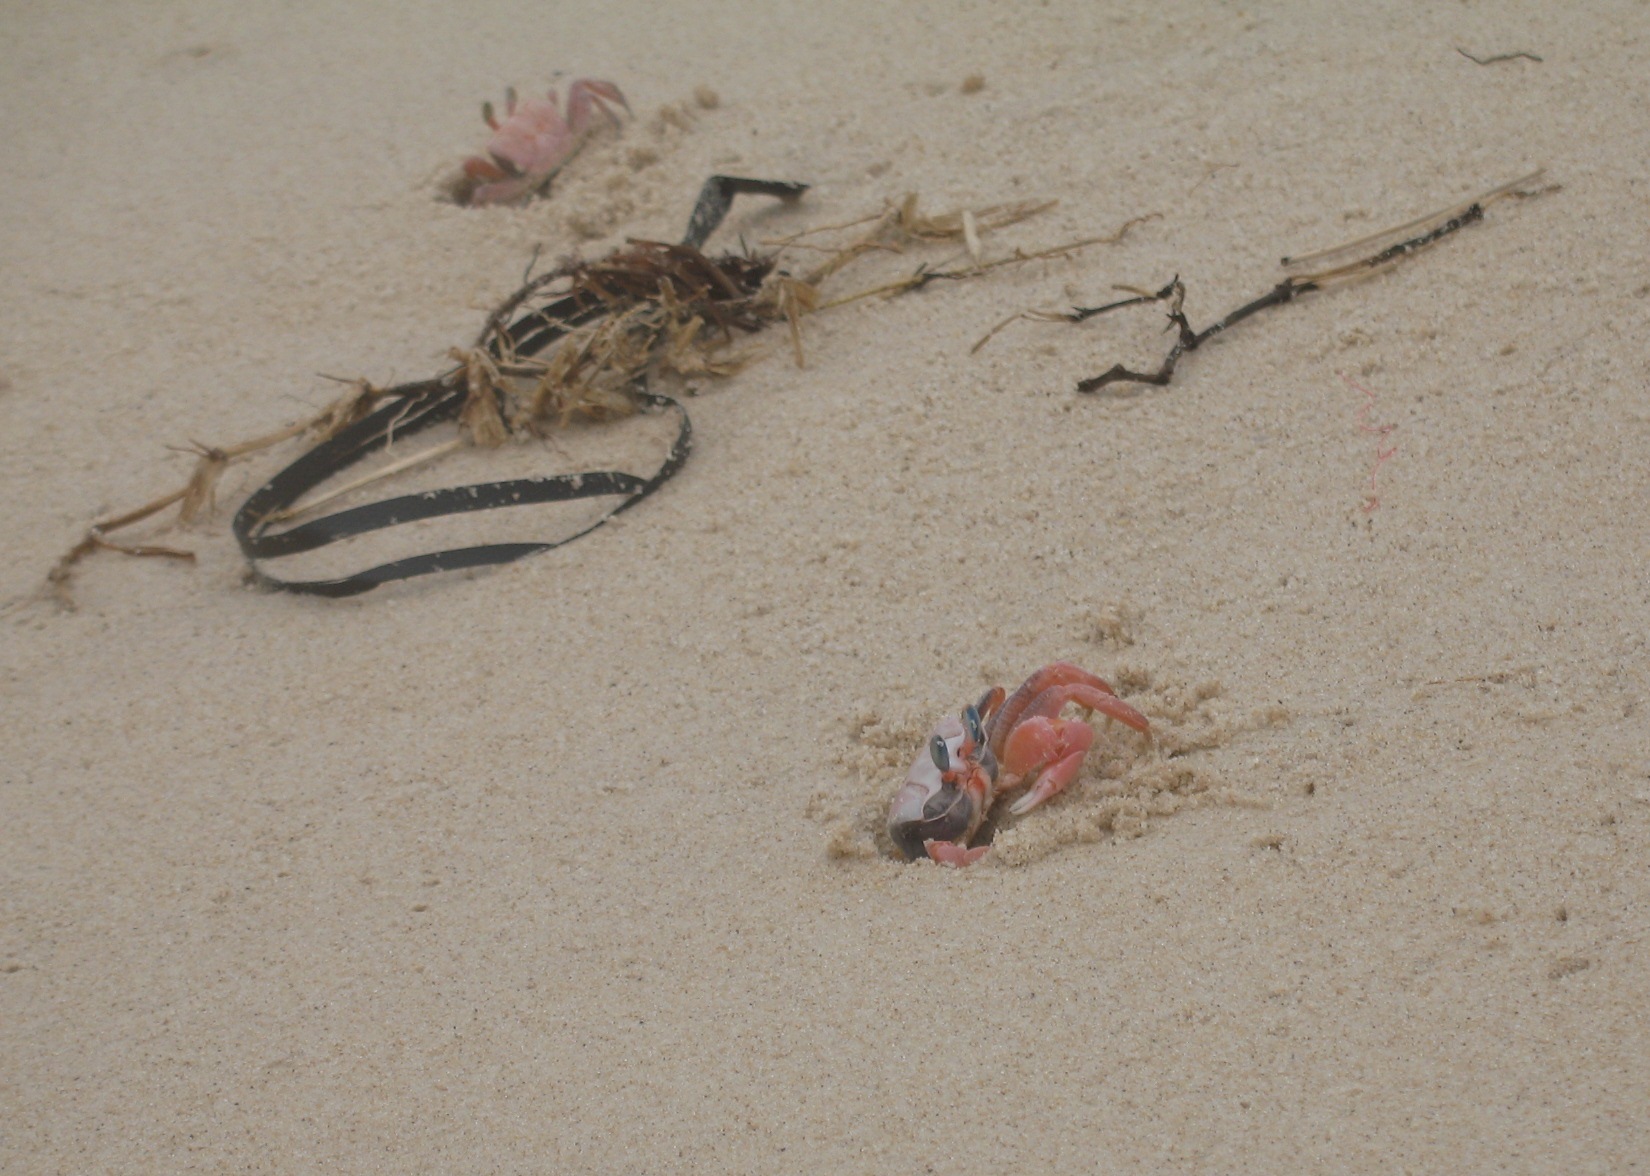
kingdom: Animalia
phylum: Arthropoda
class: Malacostraca
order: Decapoda
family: Ocypodidae
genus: Ocypode
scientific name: Ocypode africana
